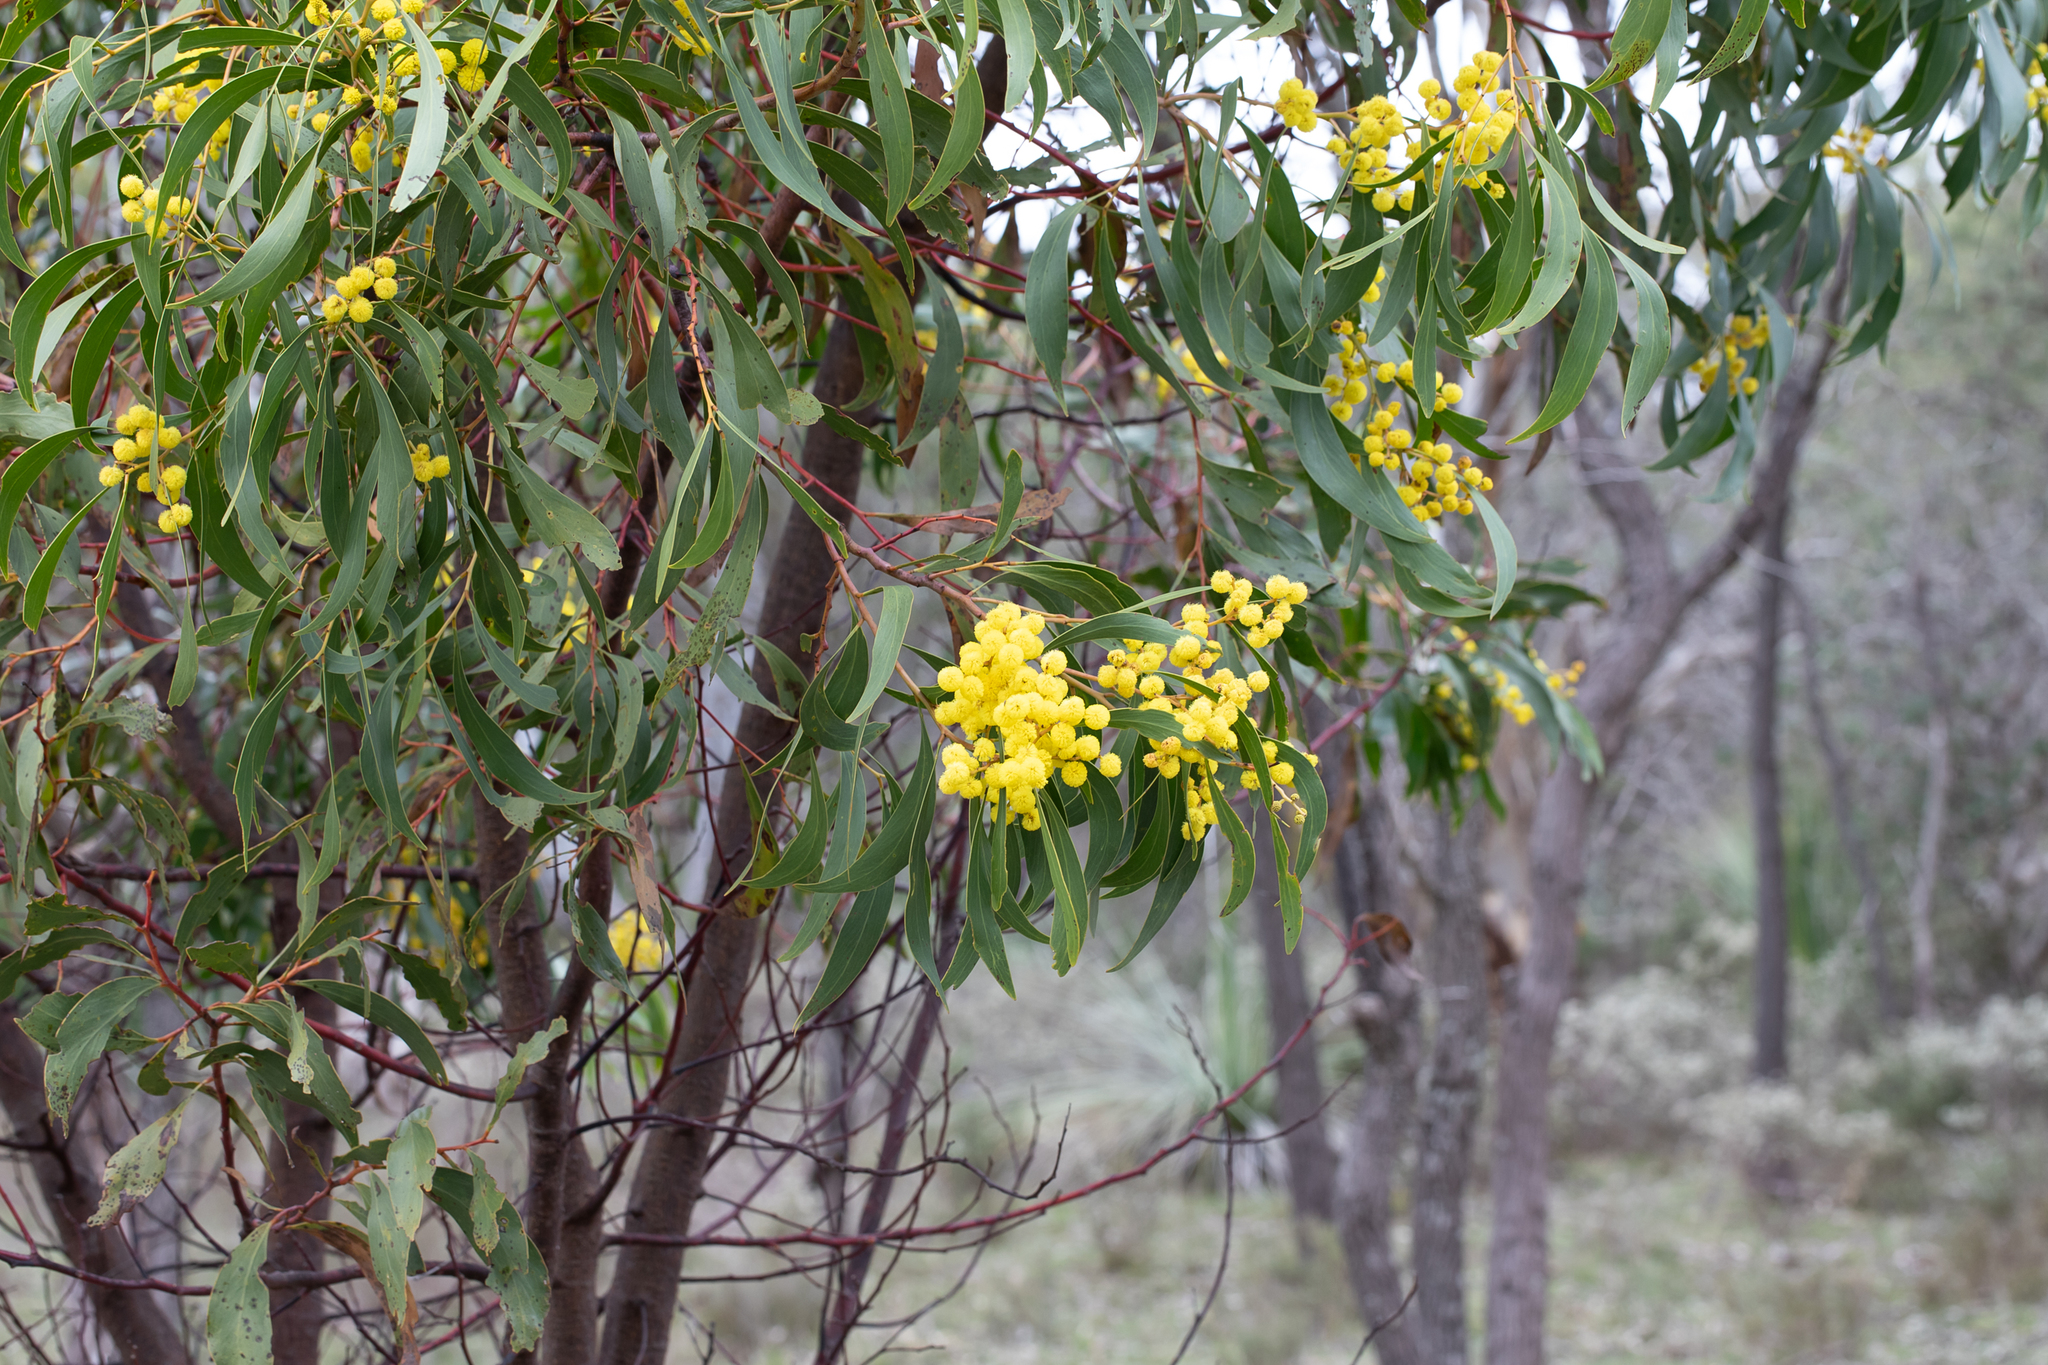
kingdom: Plantae
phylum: Tracheophyta
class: Magnoliopsida
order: Fabales
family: Fabaceae
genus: Acacia
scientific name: Acacia pycnantha
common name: Golden wattle
